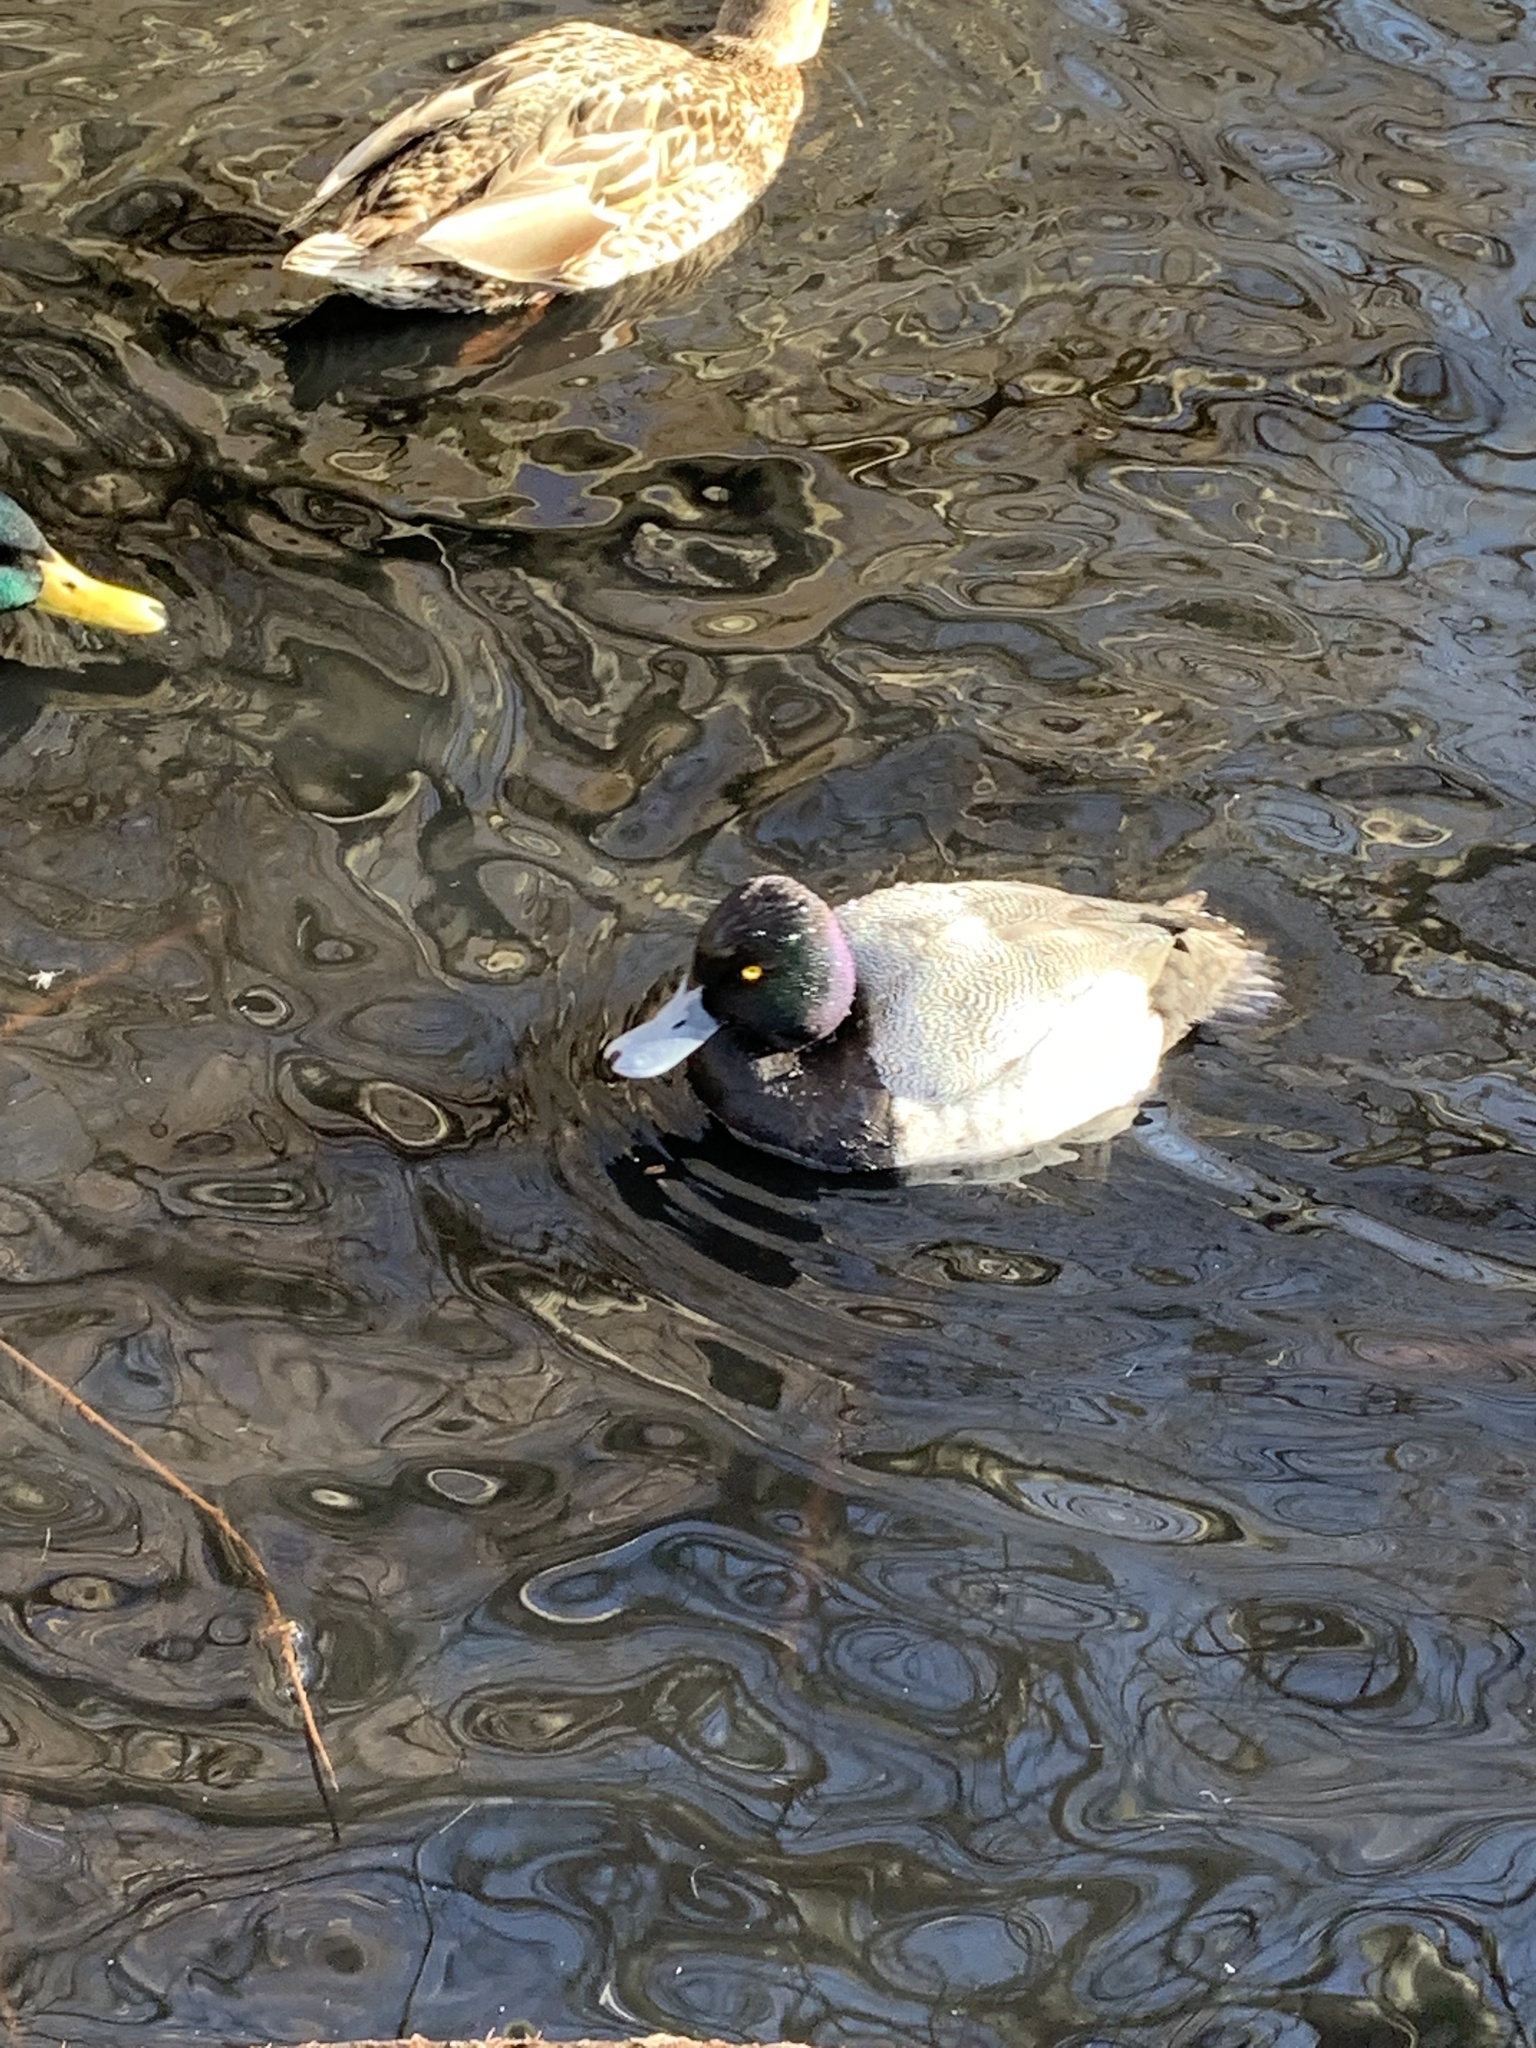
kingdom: Animalia
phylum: Chordata
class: Aves
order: Anseriformes
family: Anatidae
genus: Aythya
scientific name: Aythya affinis
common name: Lesser scaup
